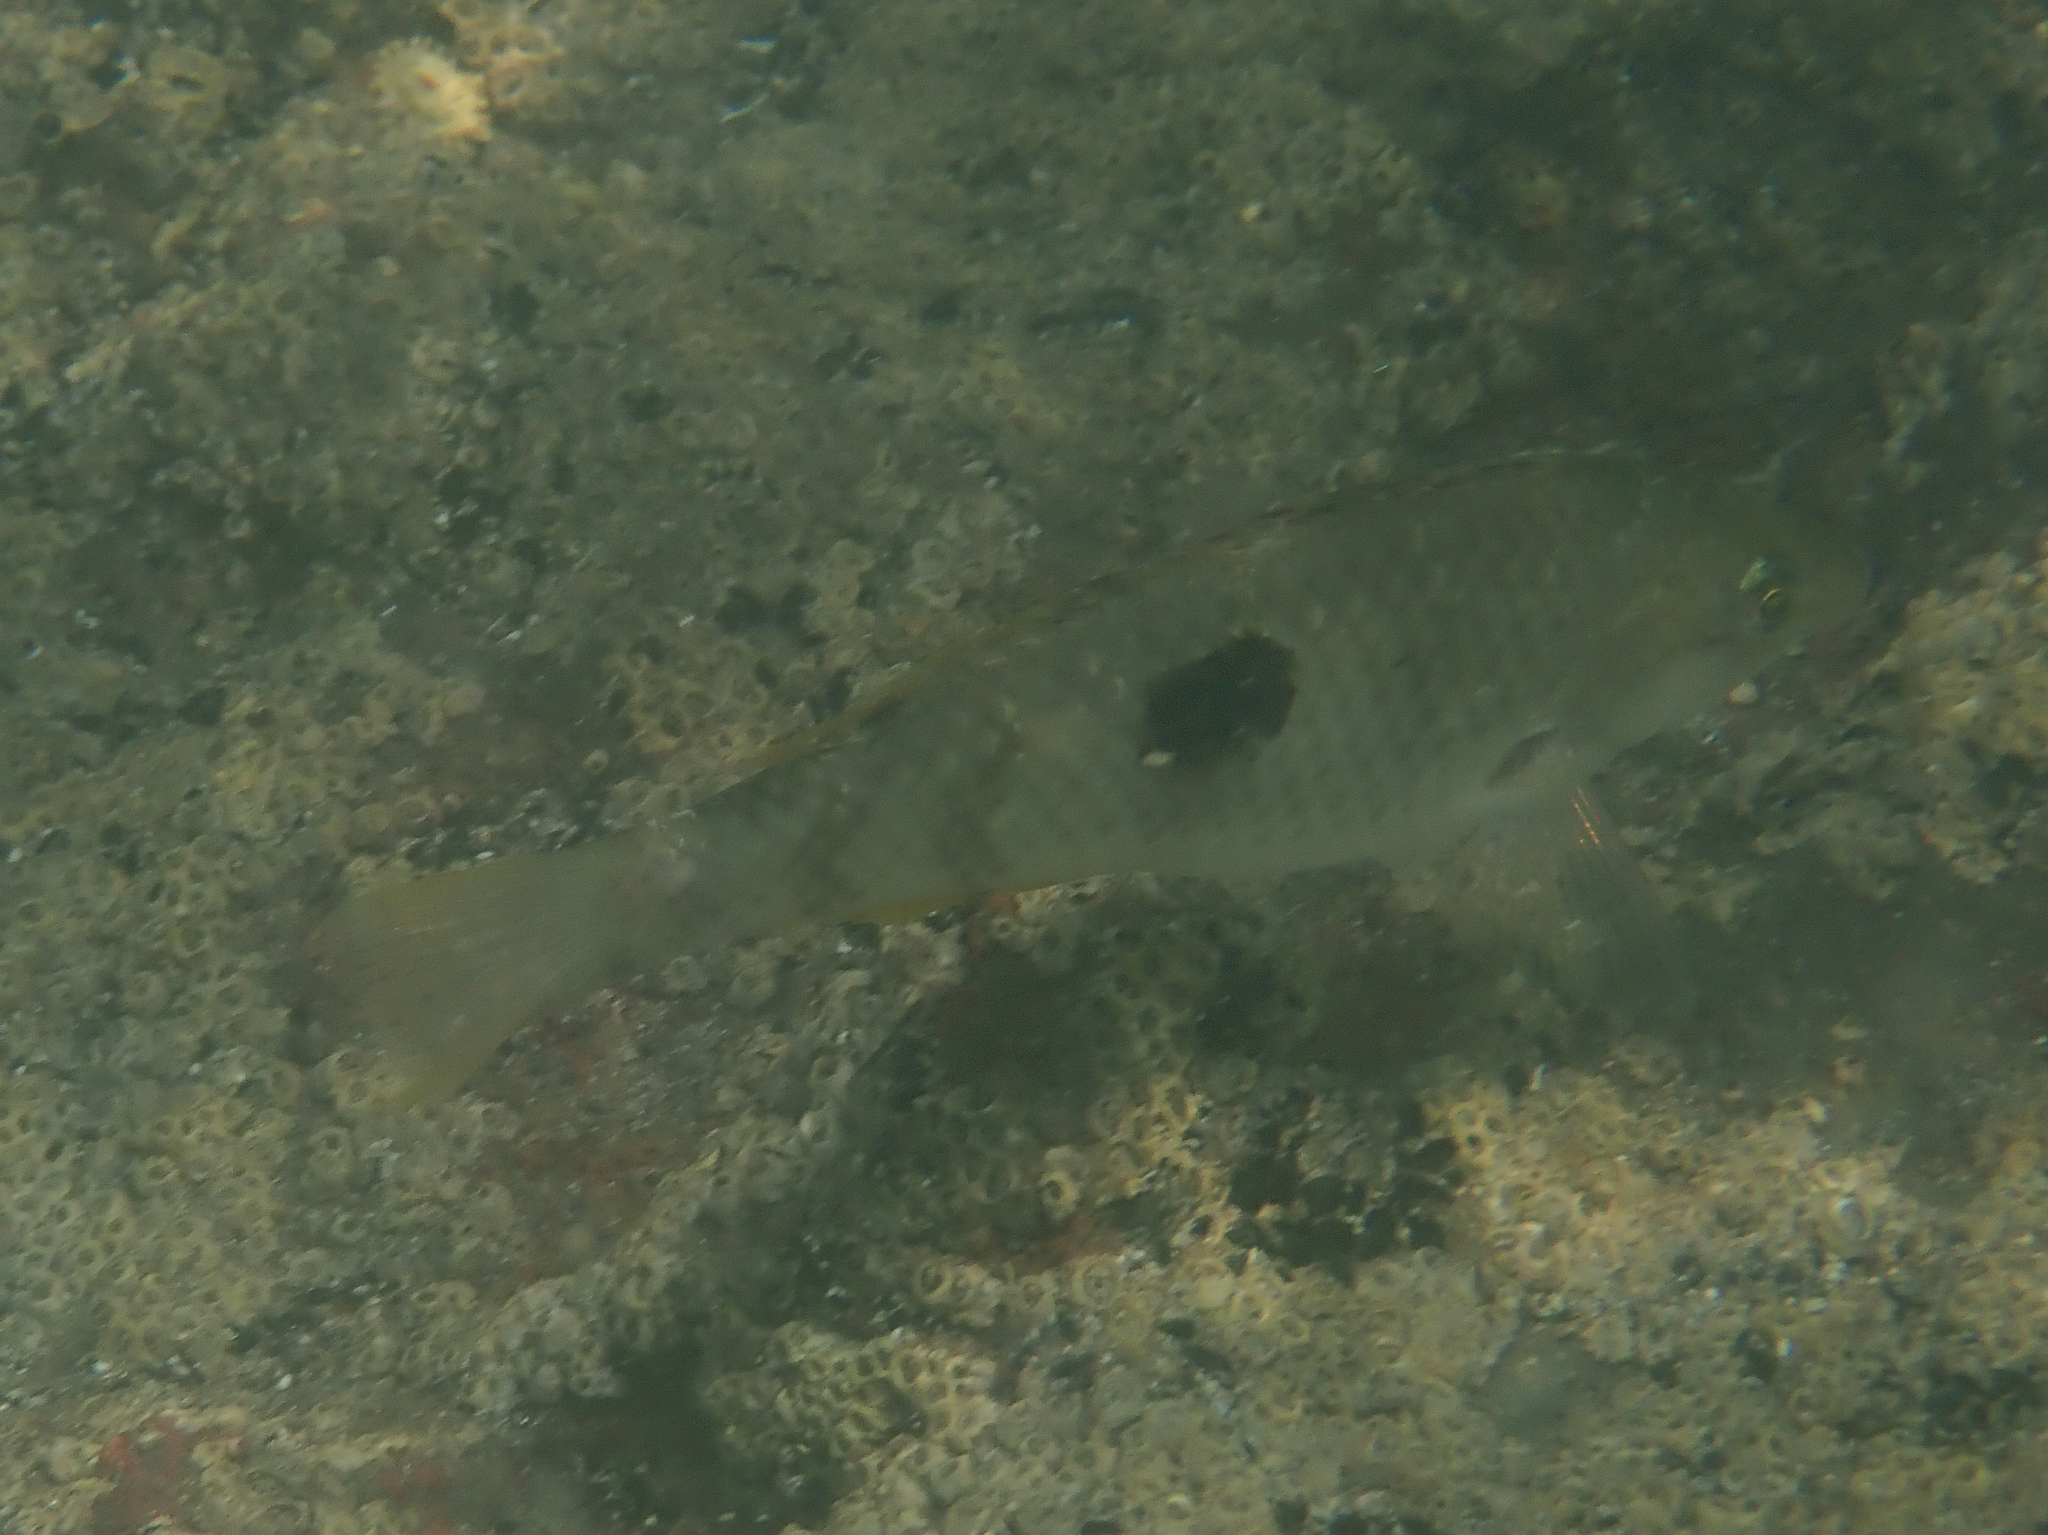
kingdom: Animalia
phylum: Chordata
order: Perciformes
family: Labridae
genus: Notolabrus
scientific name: Notolabrus celidotus
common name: Spotty
